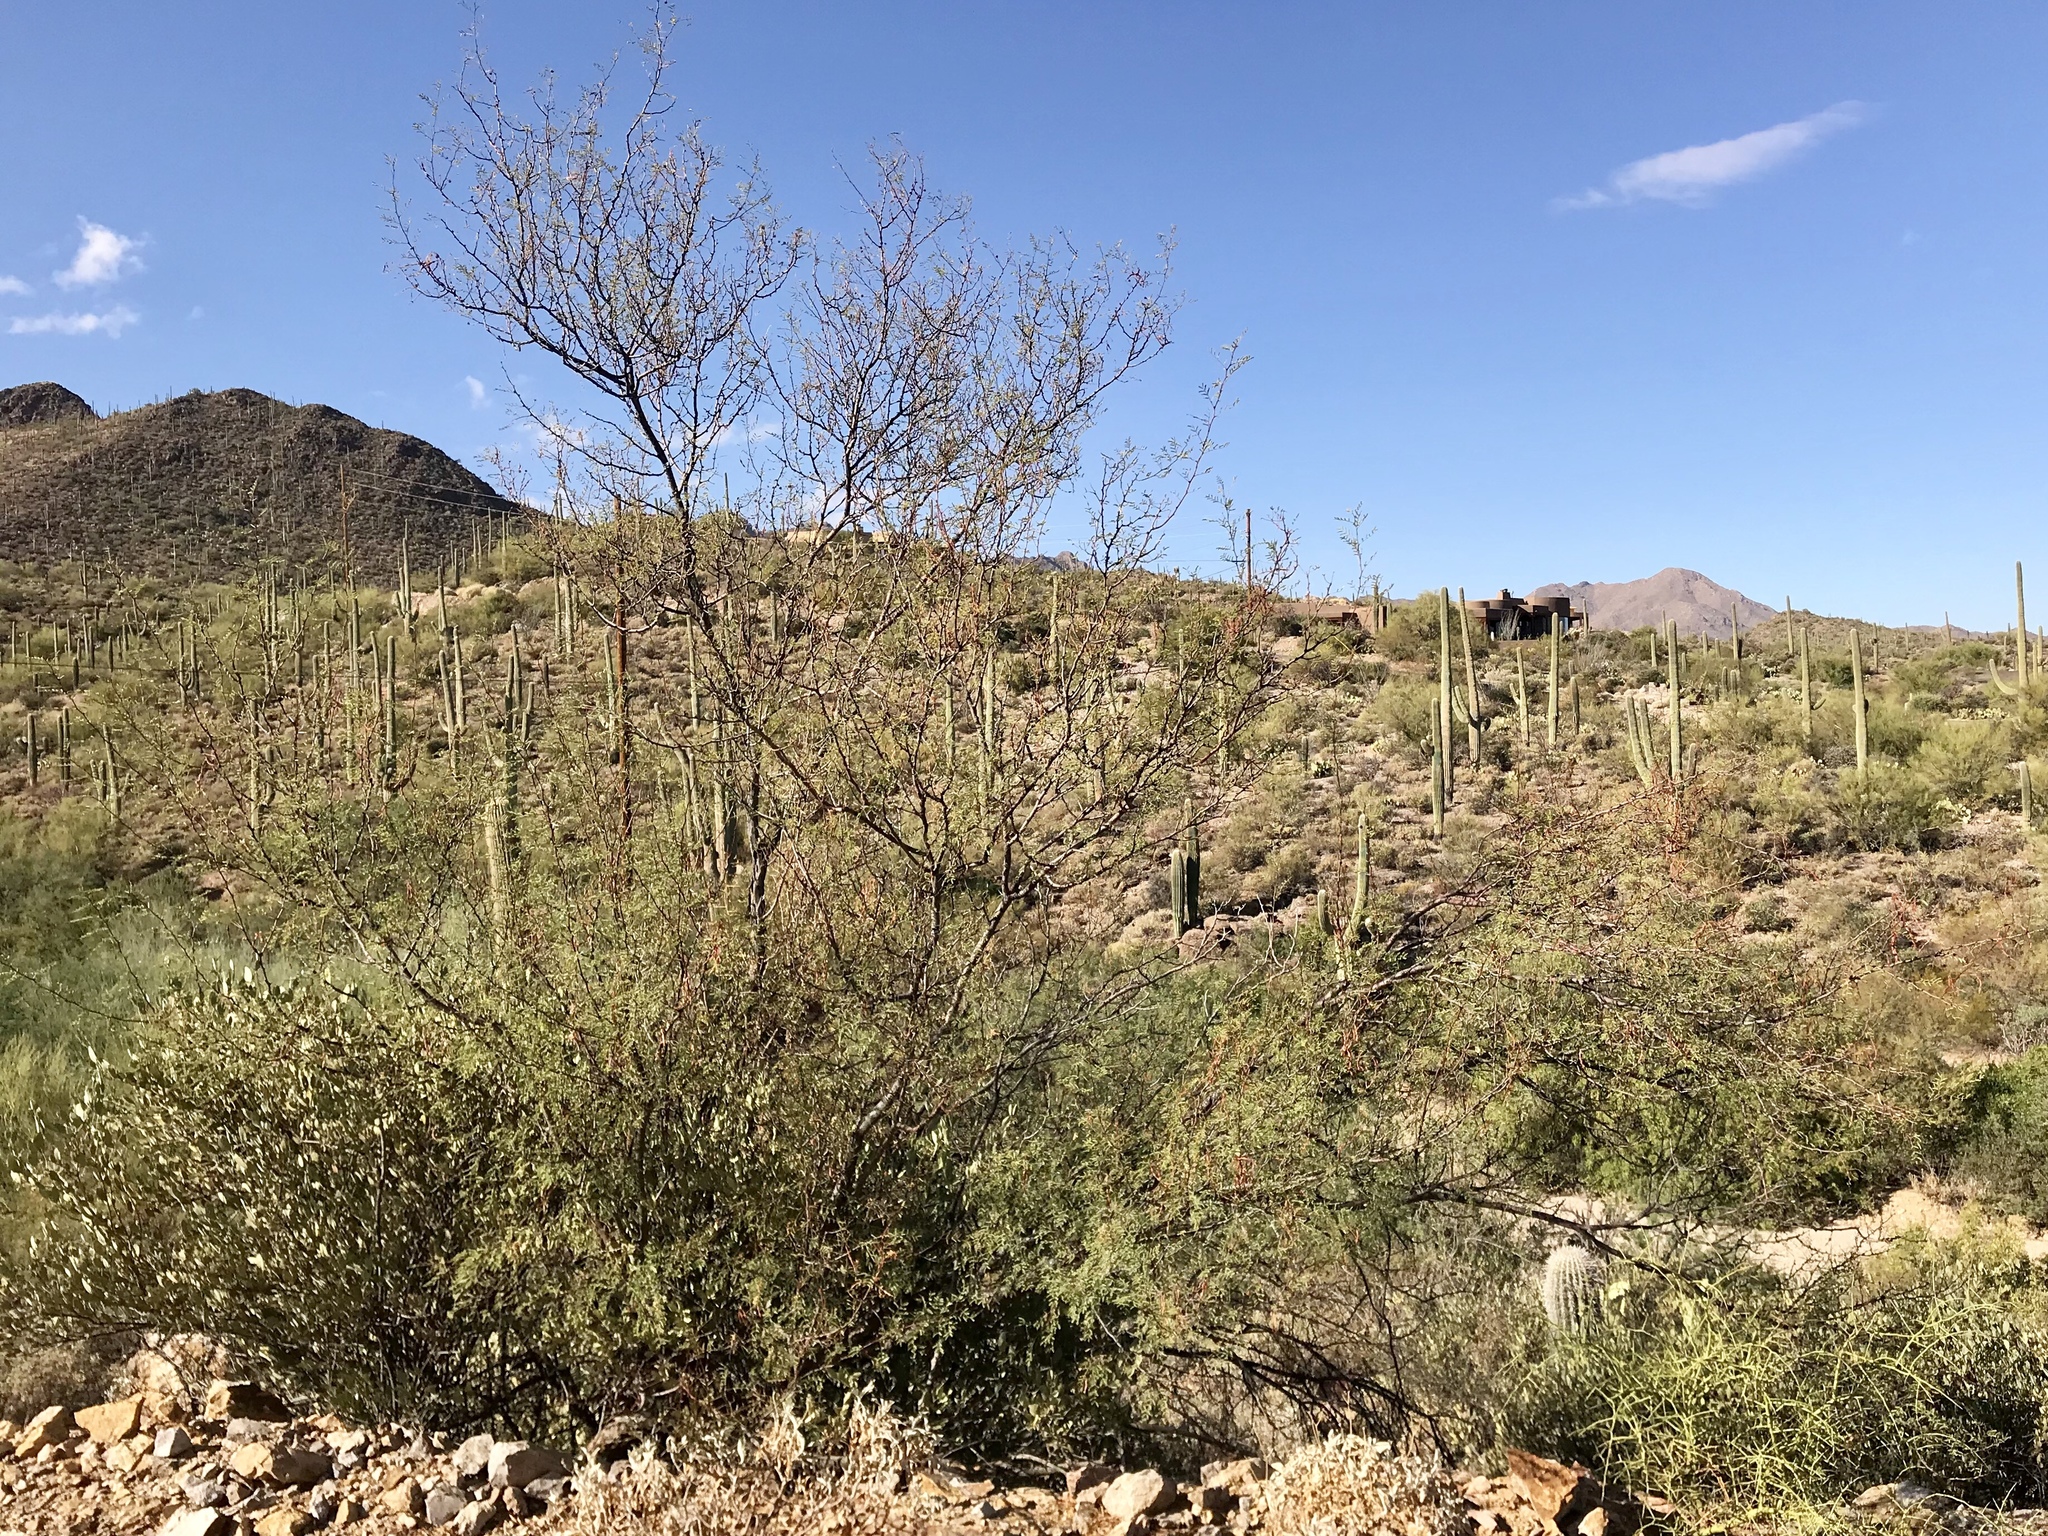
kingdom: Plantae
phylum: Tracheophyta
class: Magnoliopsida
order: Fabales
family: Fabaceae
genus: Vachellia
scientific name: Vachellia constricta
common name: Mescat acacia
